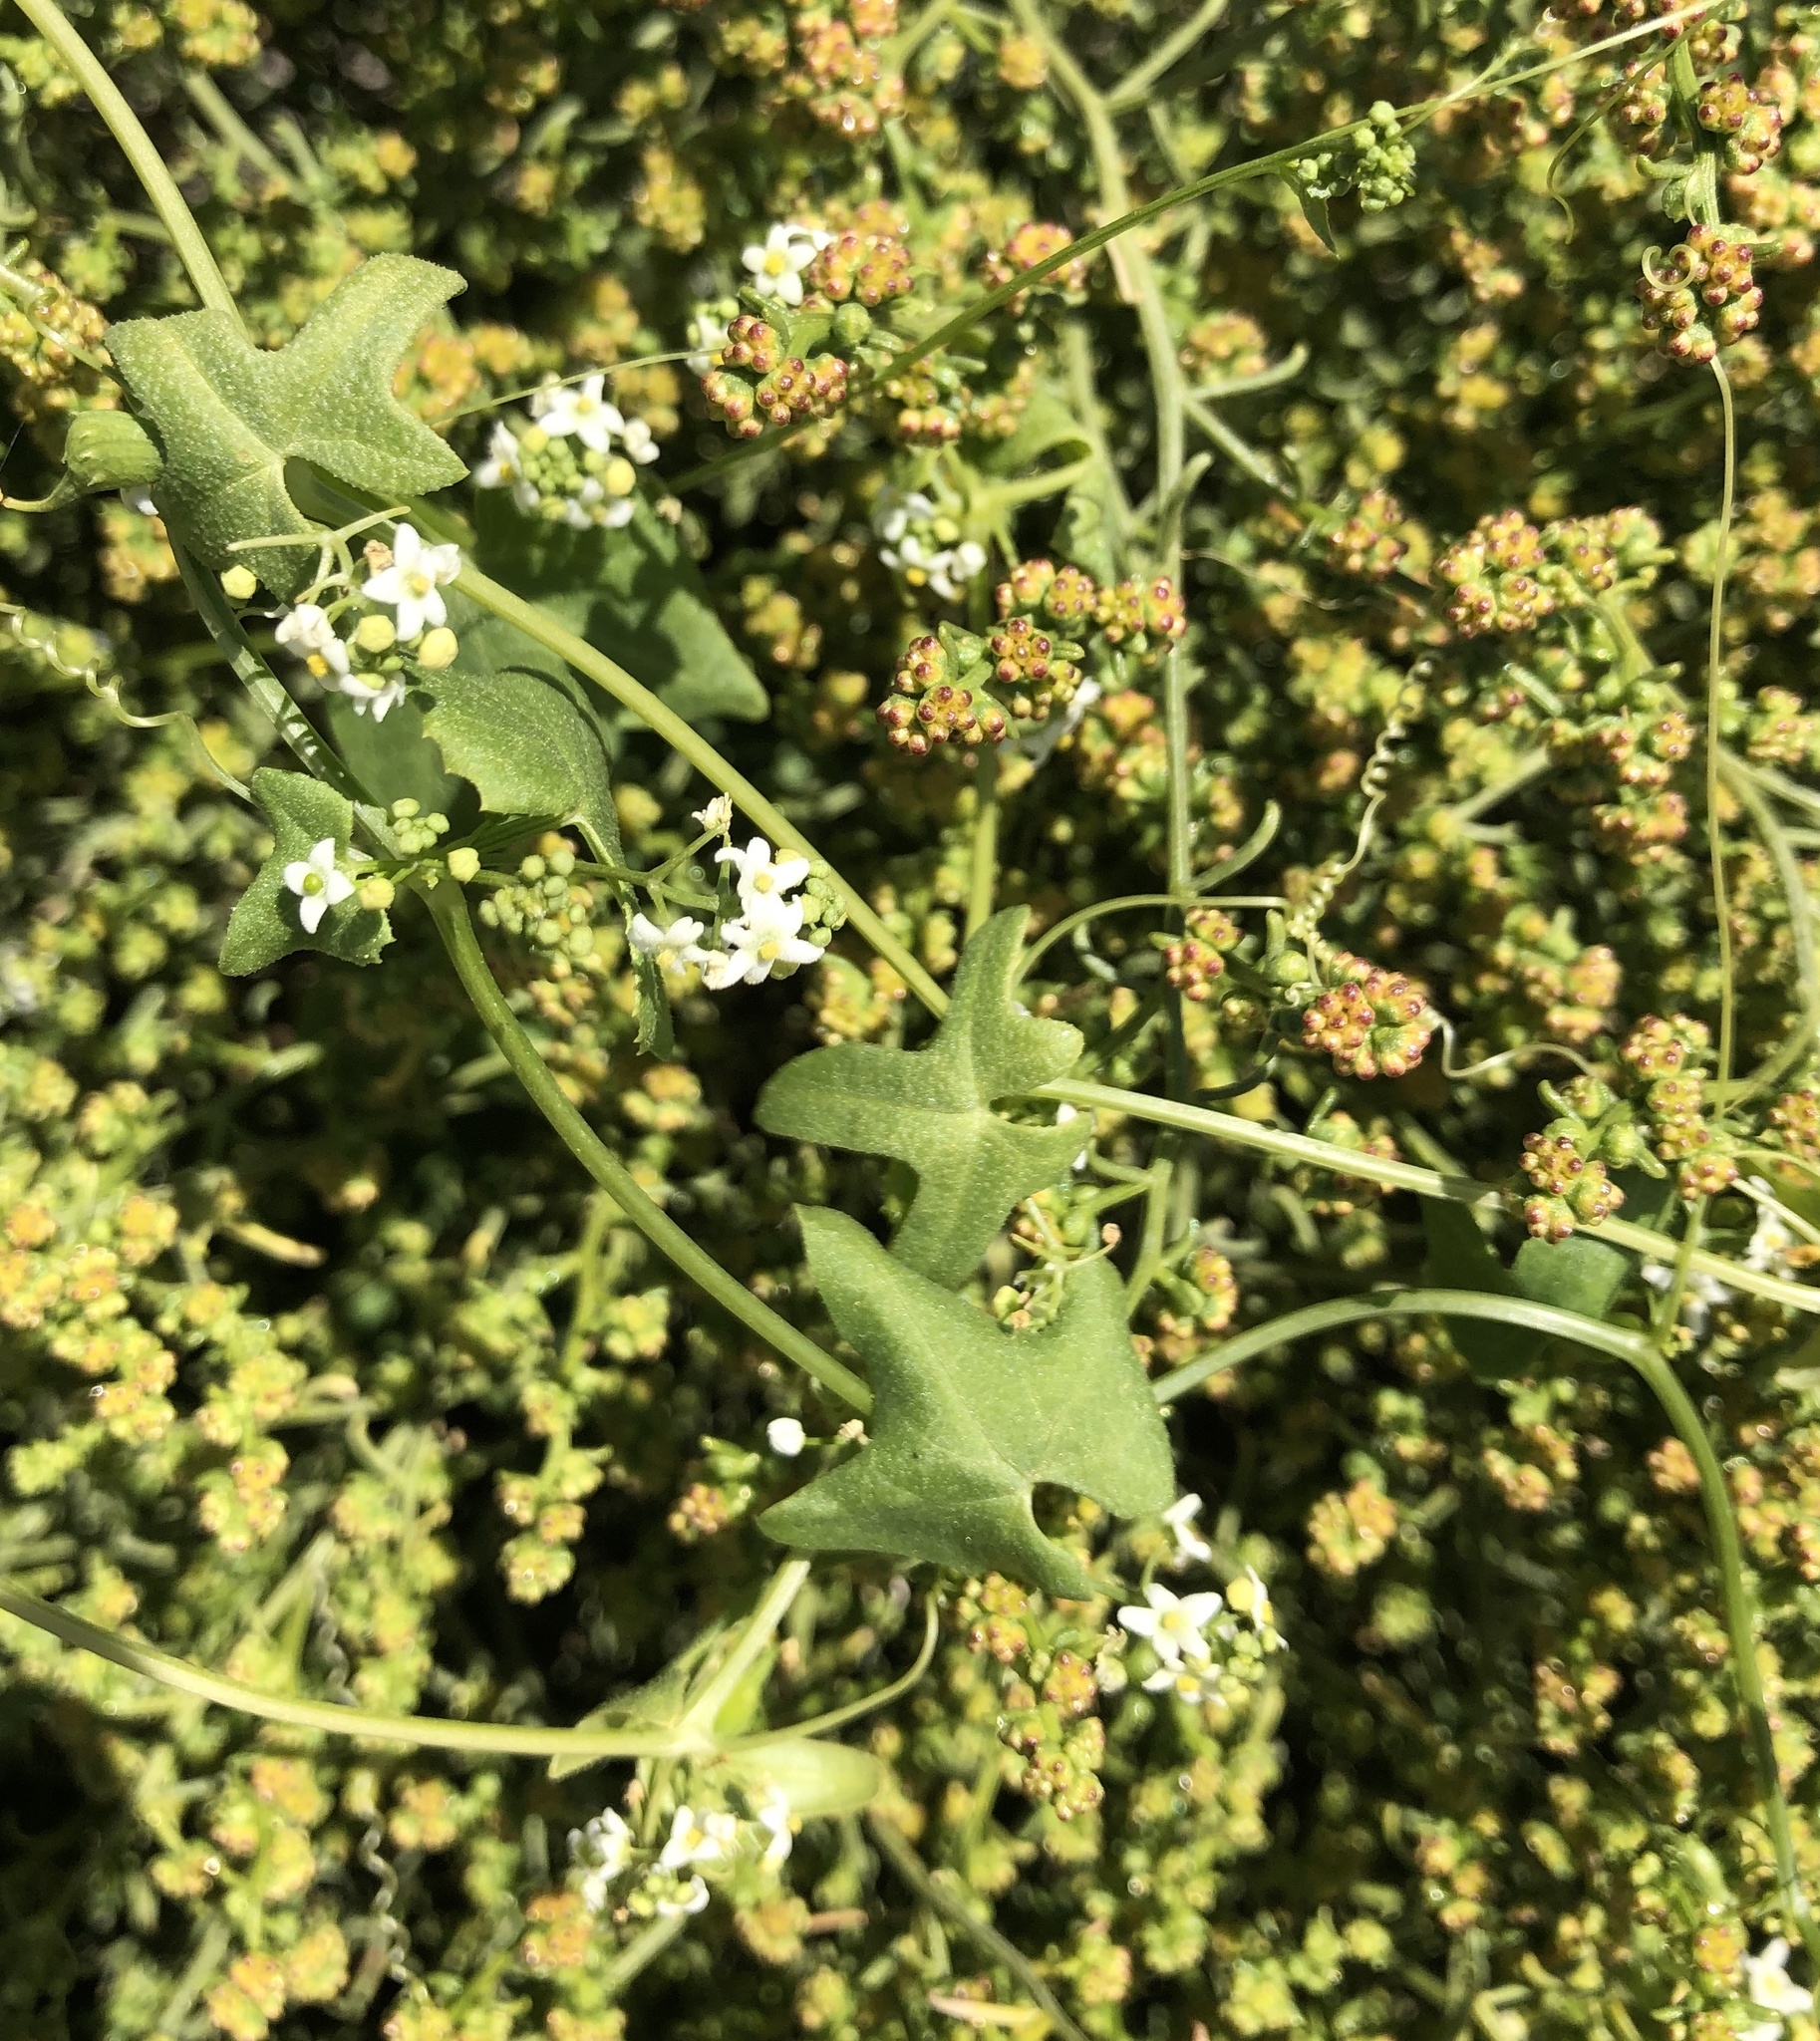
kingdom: Plantae
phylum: Tracheophyta
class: Magnoliopsida
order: Cucurbitales
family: Cucurbitaceae
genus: Echinopepon
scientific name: Echinopepon bigelovii
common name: Desert starvine
